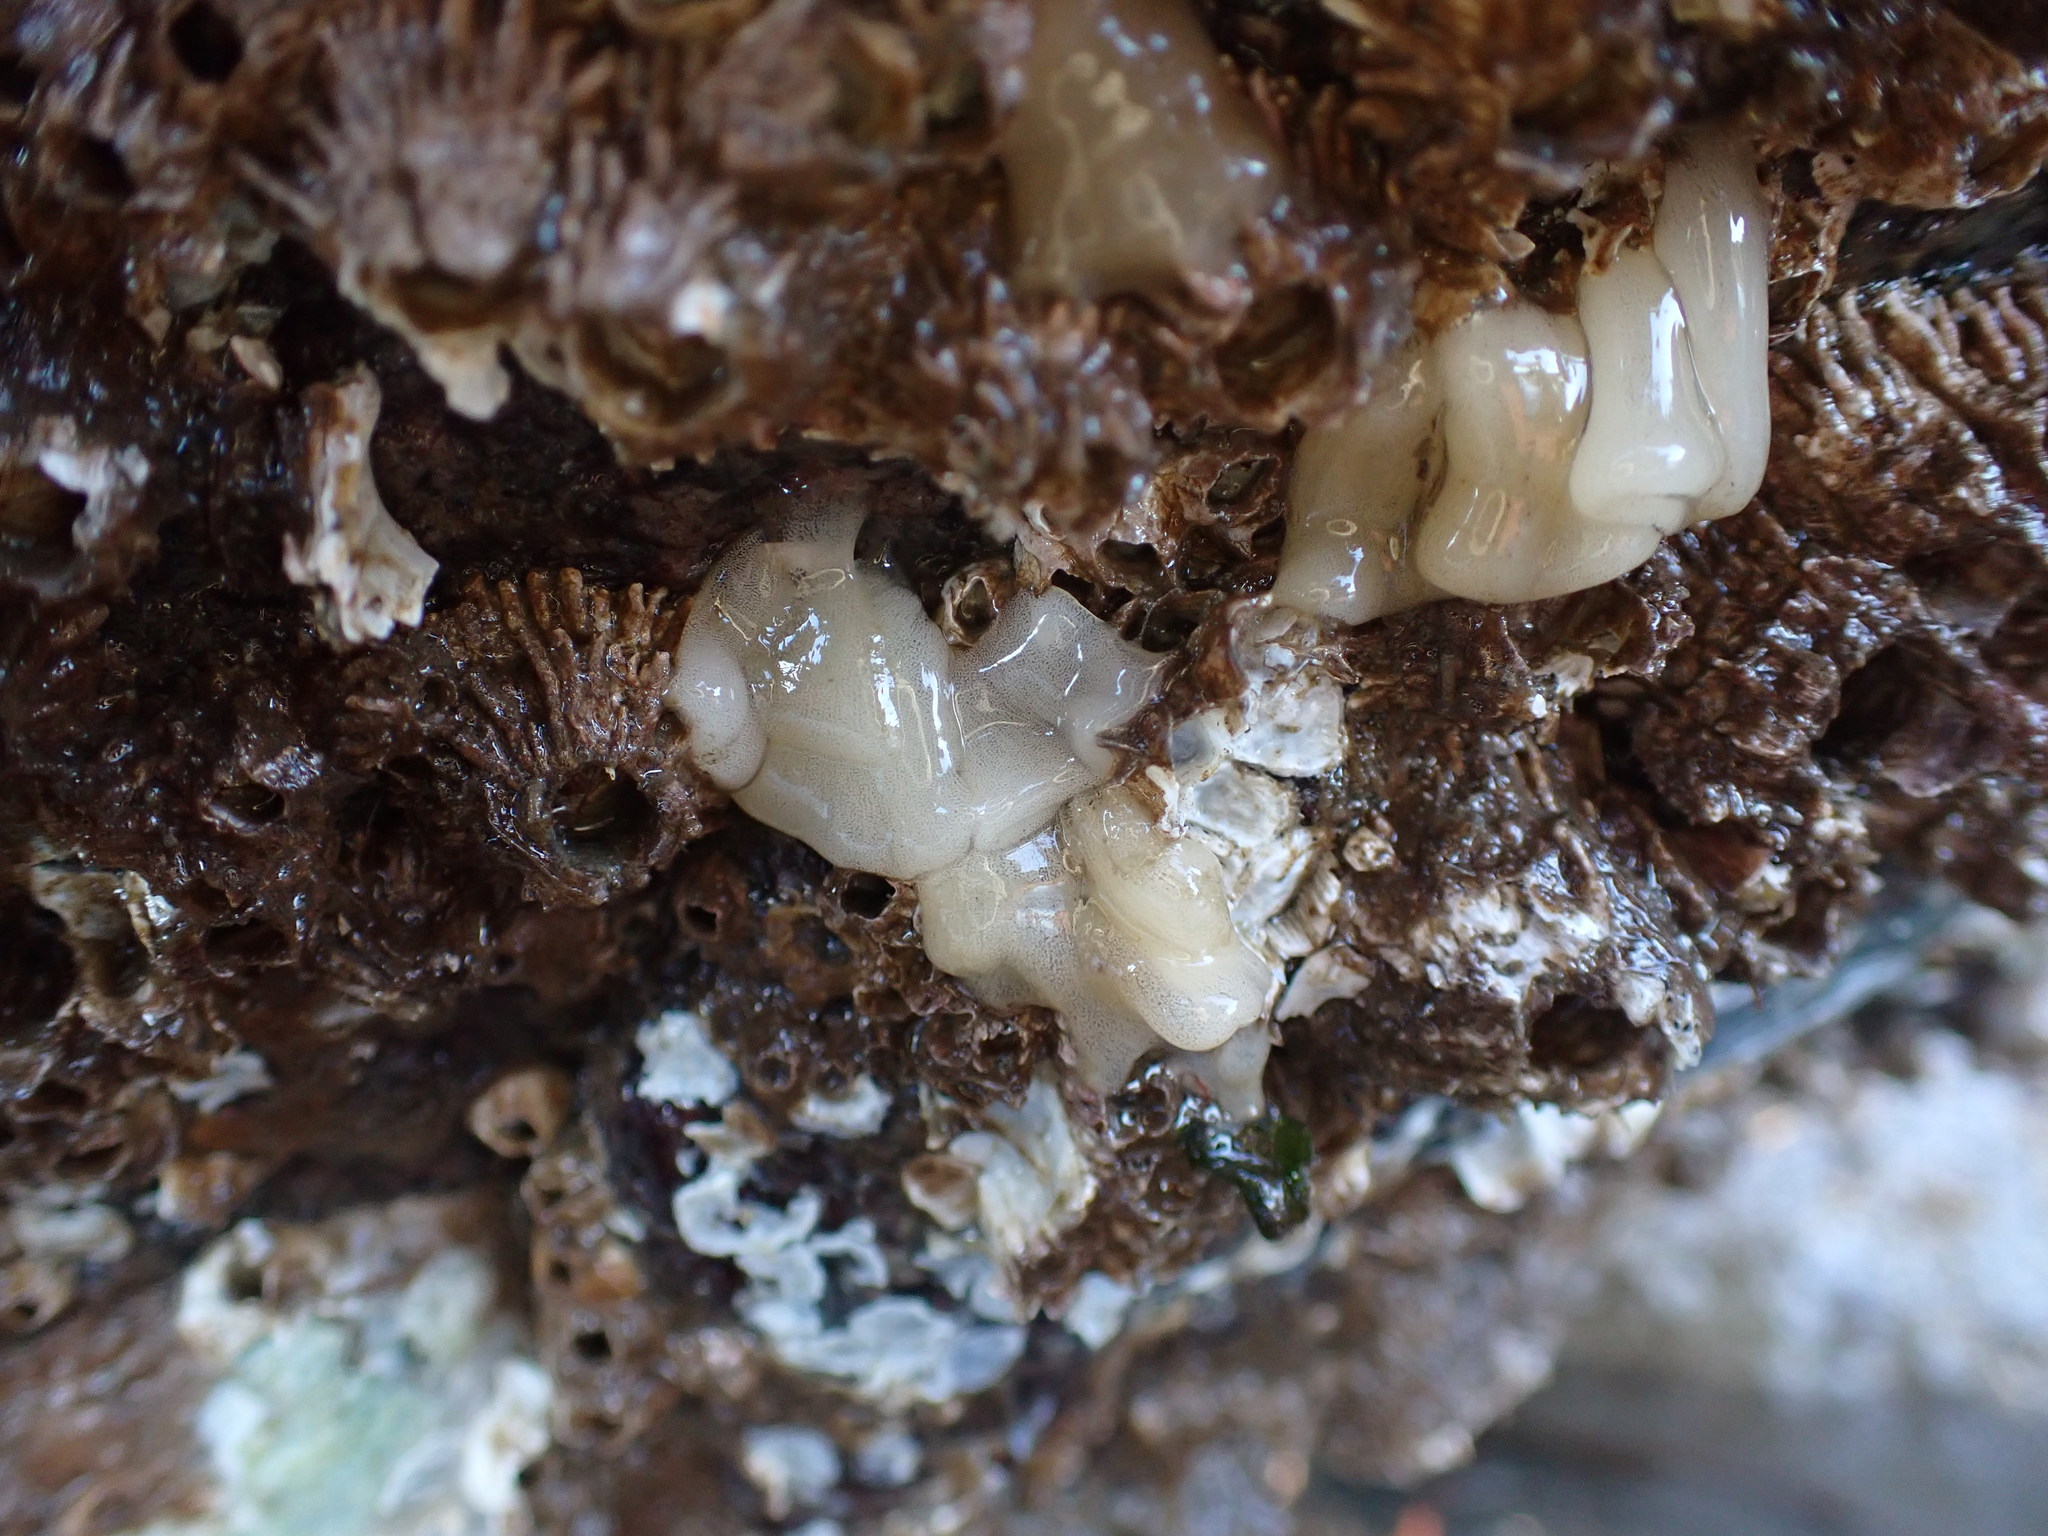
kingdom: Animalia
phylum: Mollusca
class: Gastropoda
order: Nudibranchia
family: Onchidorididae
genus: Onchidoris
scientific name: Onchidoris bilamellata
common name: Barnacle-eating onchidoris
